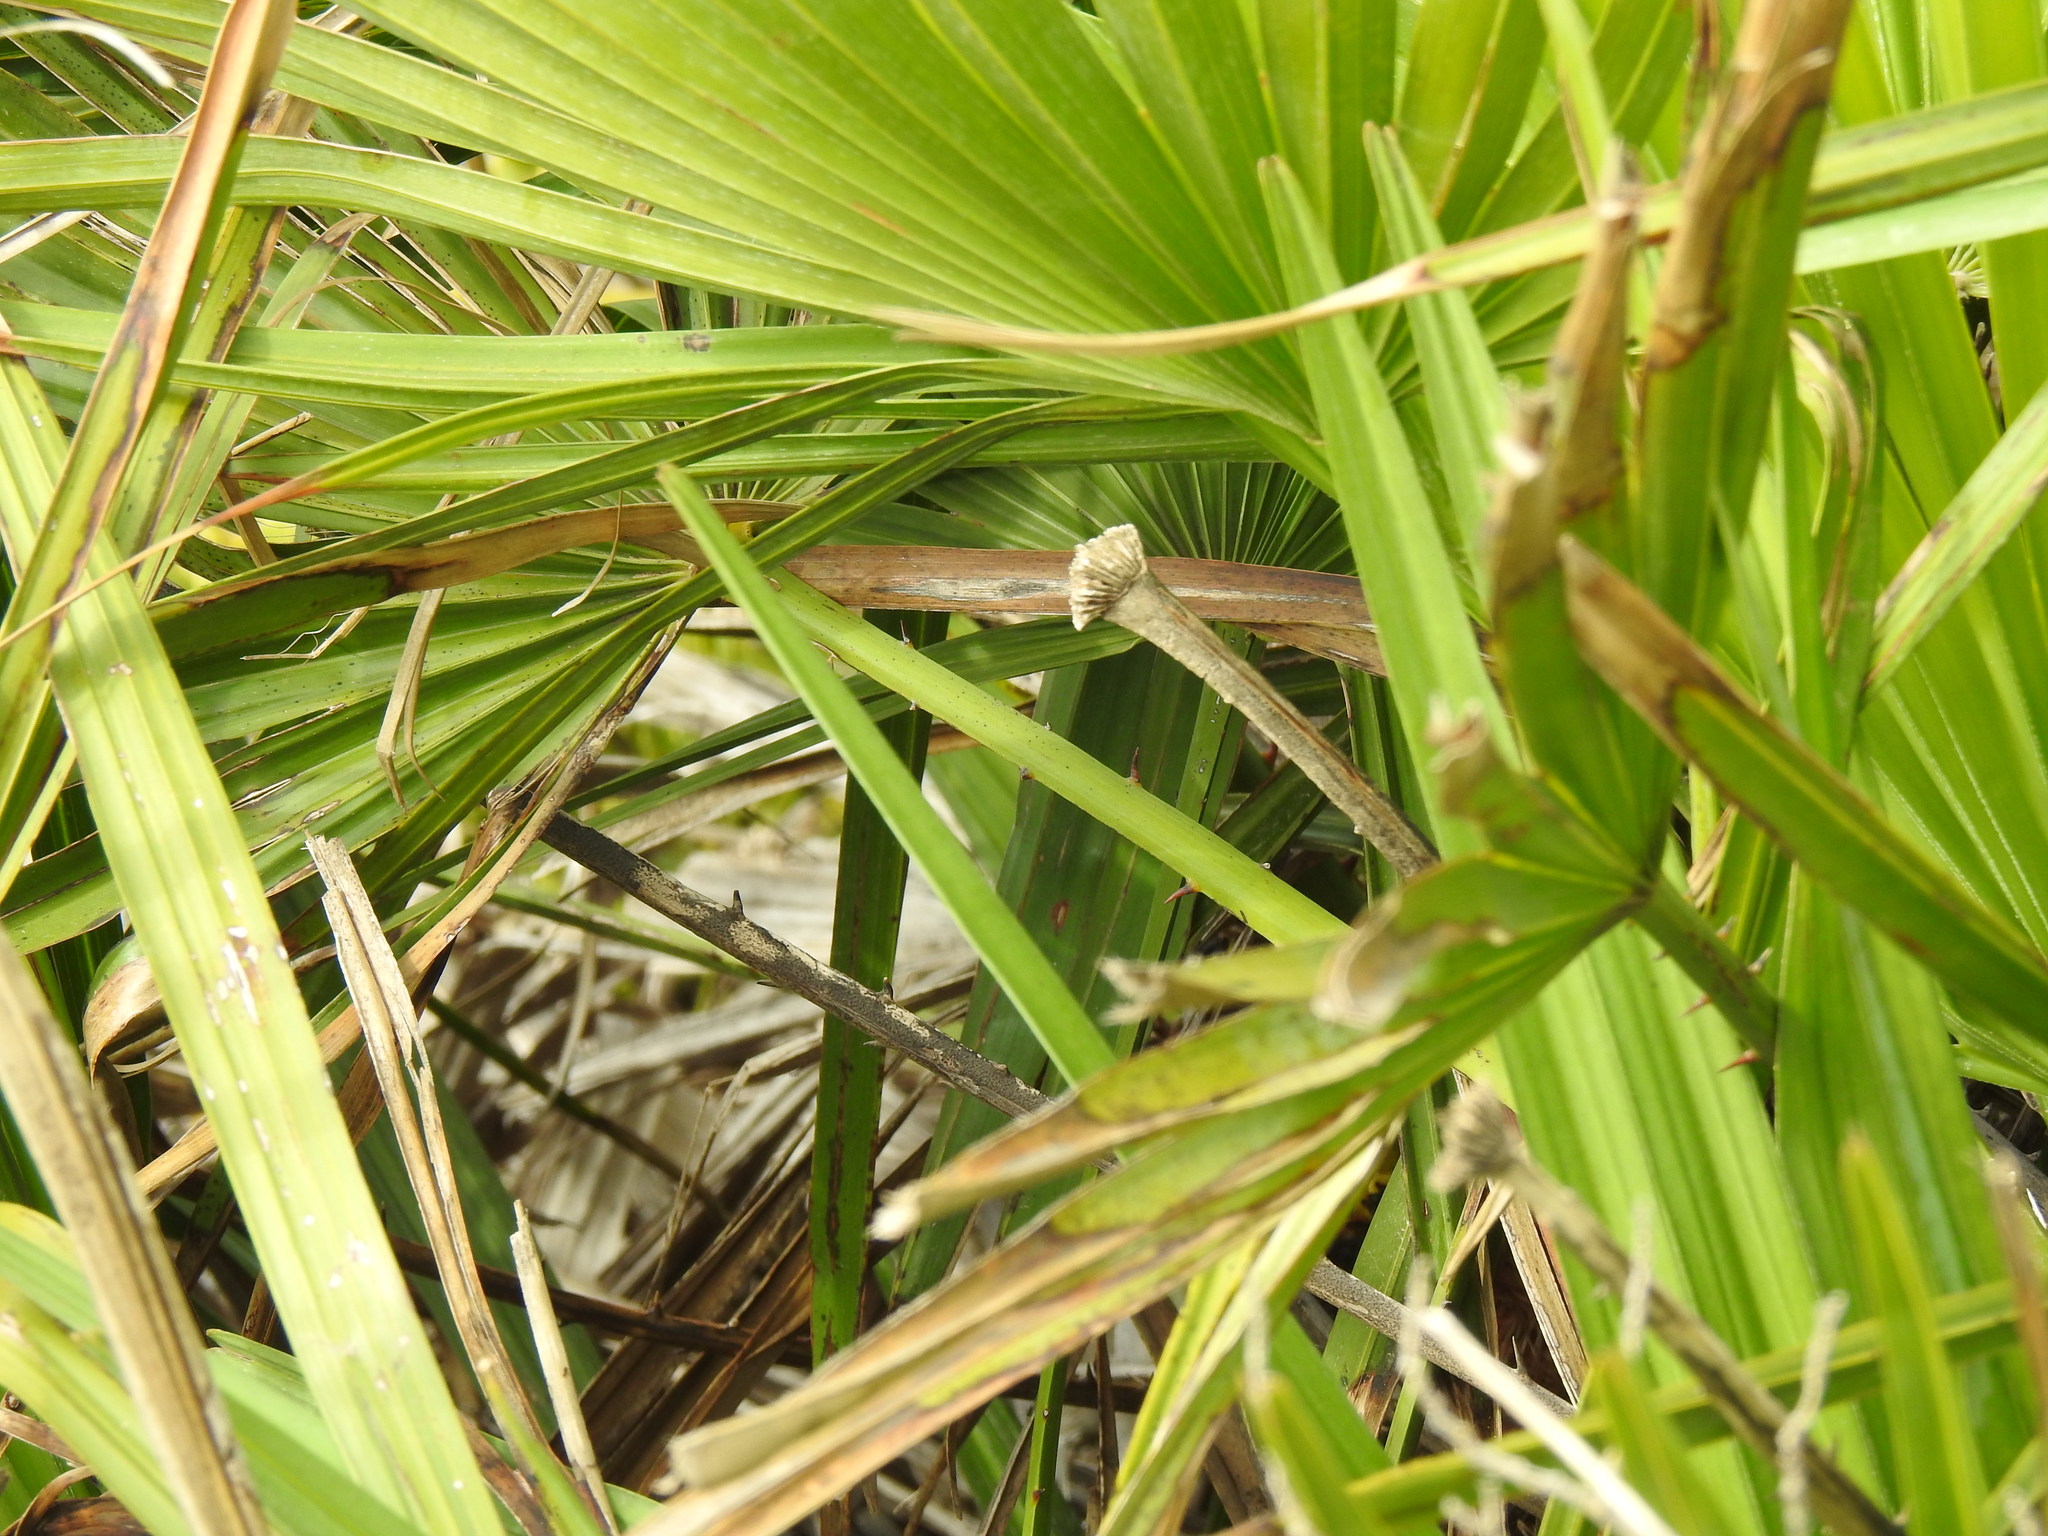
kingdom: Plantae
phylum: Tracheophyta
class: Liliopsida
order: Arecales
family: Arecaceae
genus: Chamaerops
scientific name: Chamaerops humilis
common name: Dwarf fan palm
